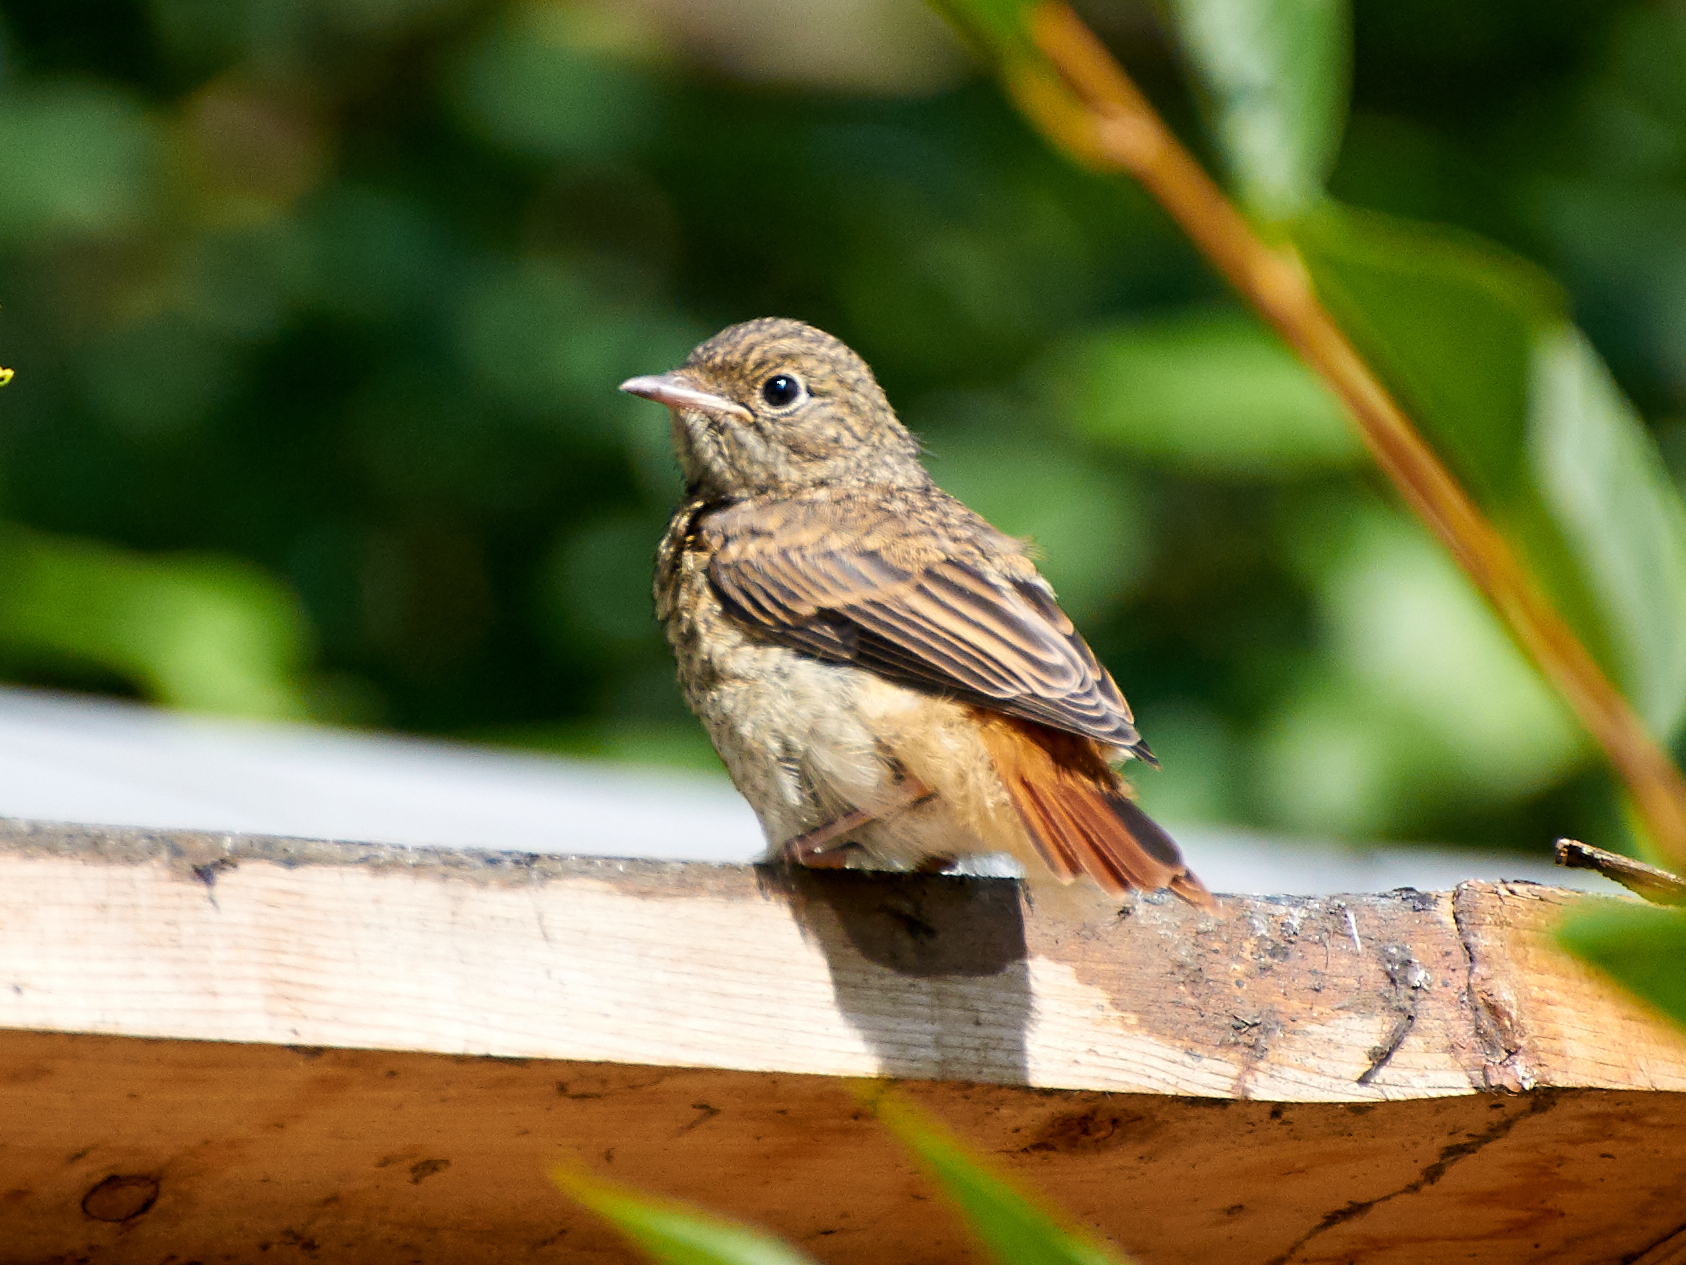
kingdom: Animalia
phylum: Chordata
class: Aves
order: Passeriformes
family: Muscicapidae
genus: Phoenicurus
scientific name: Phoenicurus phoenicurus
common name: Common redstart
